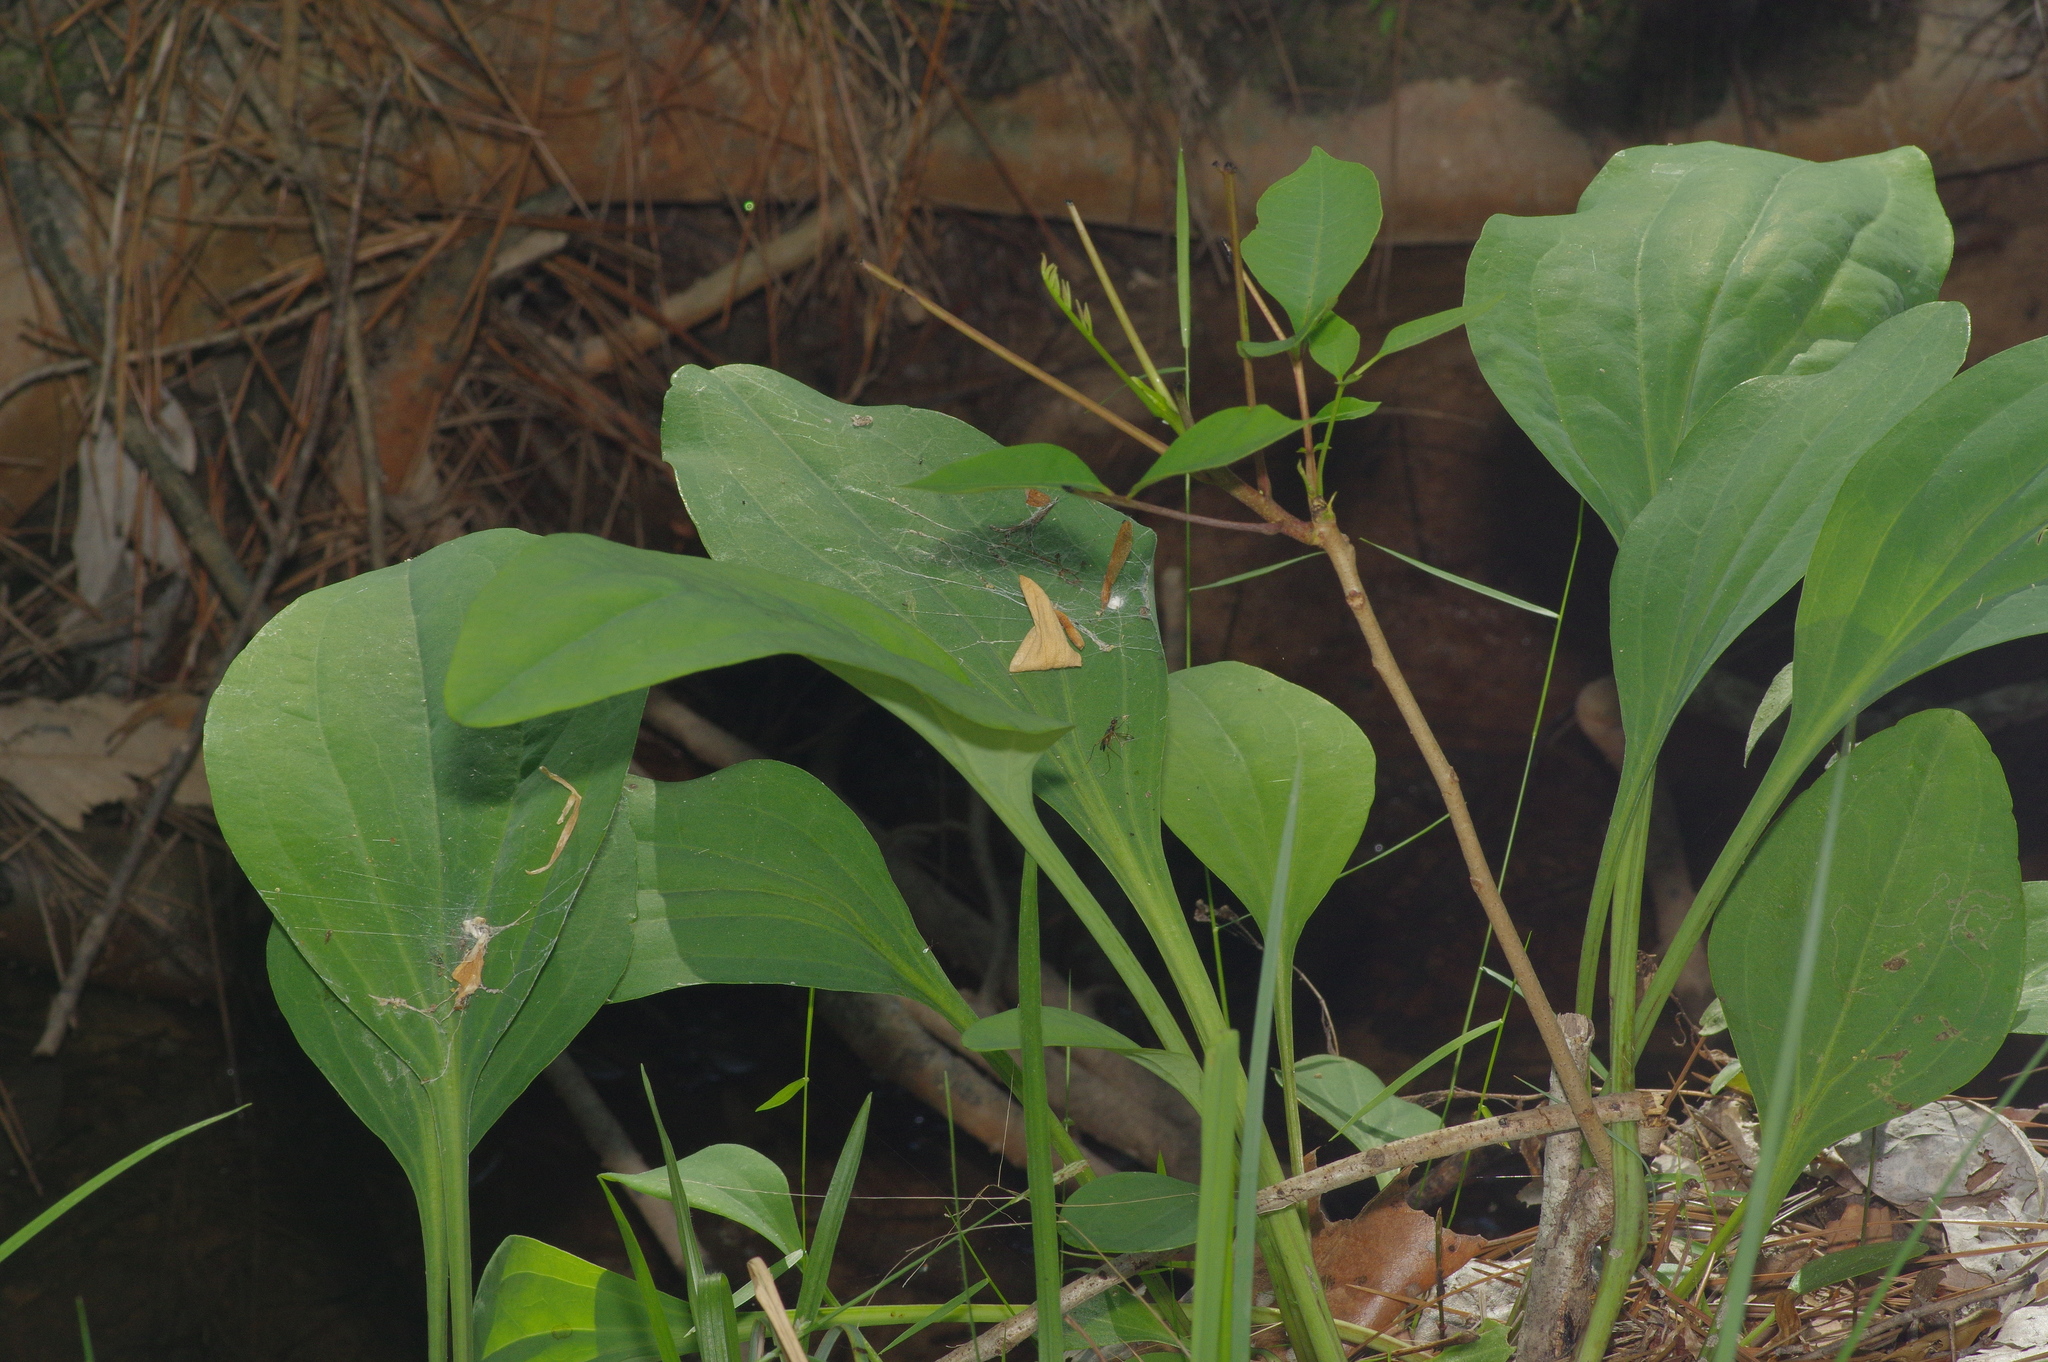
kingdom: Plantae
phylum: Tracheophyta
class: Magnoliopsida
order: Asterales
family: Asteraceae
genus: Arnoglossum
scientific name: Arnoglossum ovatum
